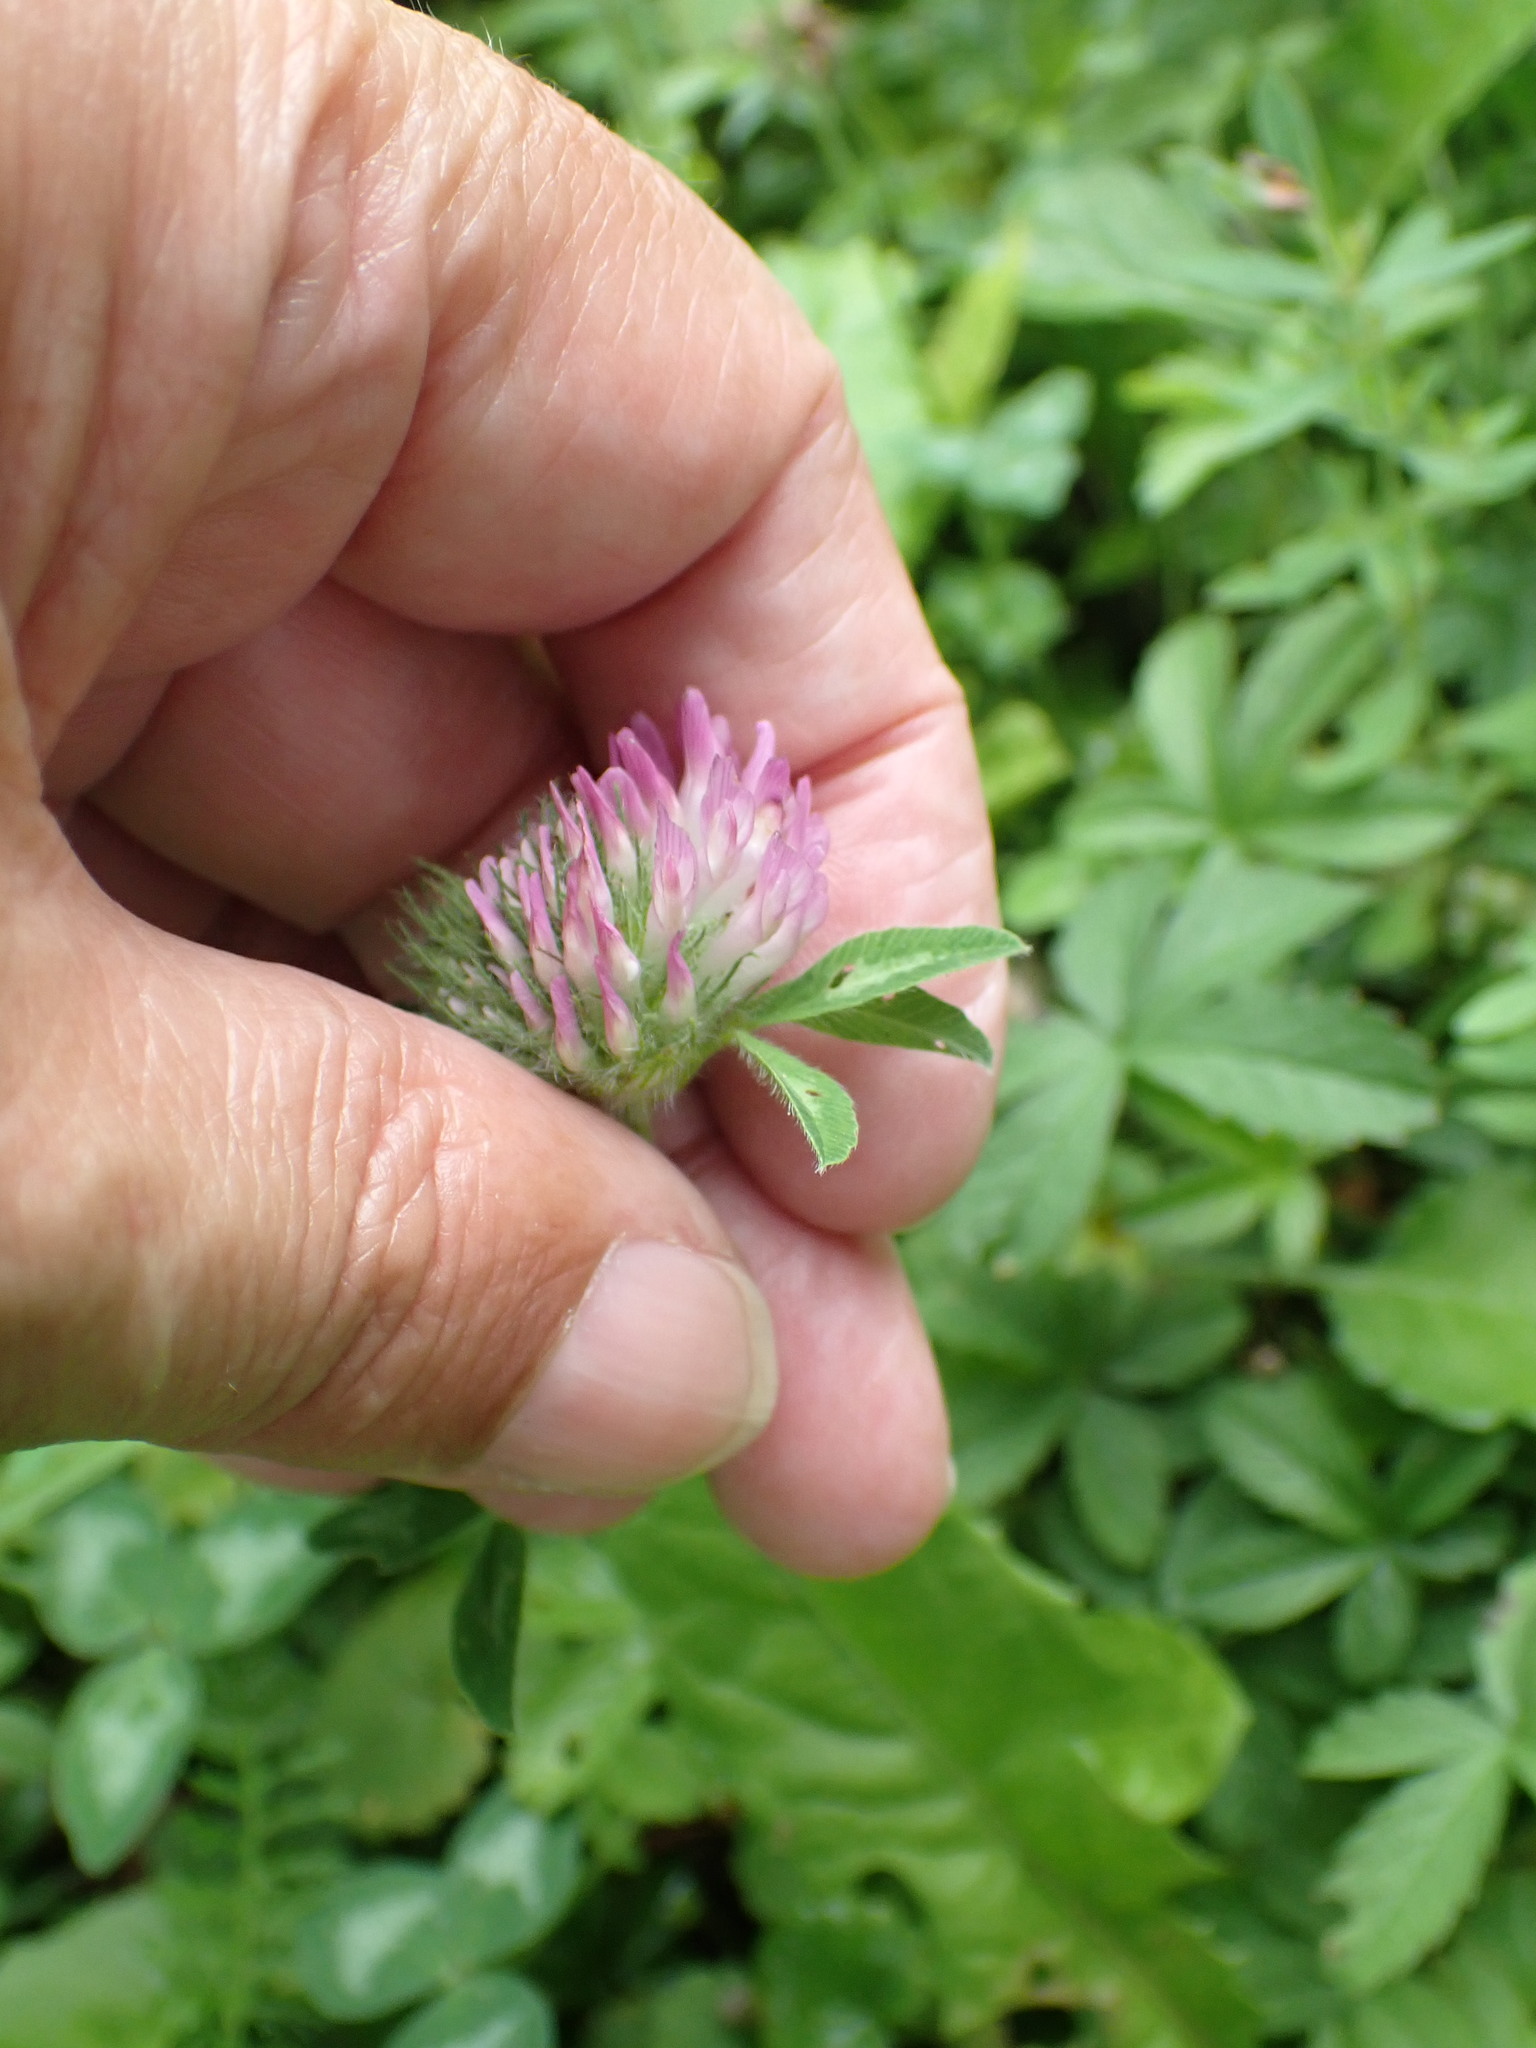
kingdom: Plantae
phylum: Tracheophyta
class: Magnoliopsida
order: Fabales
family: Fabaceae
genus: Trifolium
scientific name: Trifolium pratense
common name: Red clover
